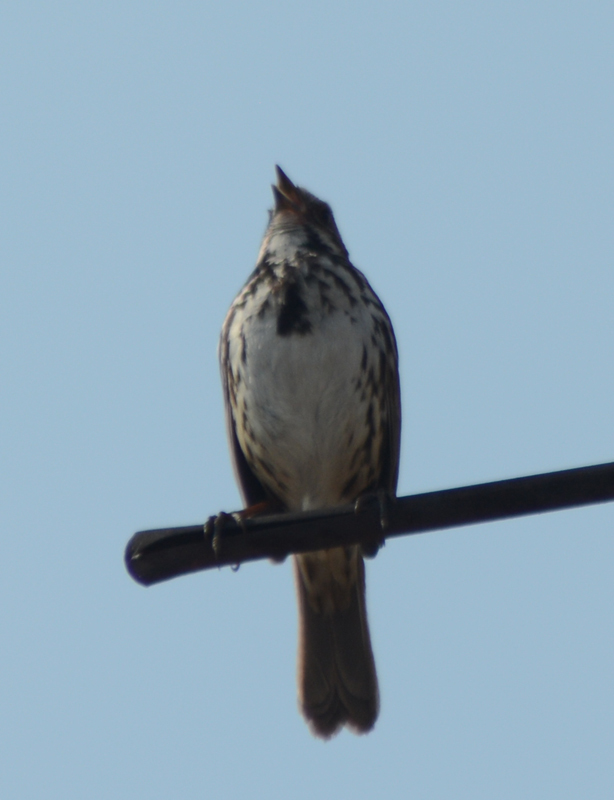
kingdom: Animalia
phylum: Chordata
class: Aves
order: Passeriformes
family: Passerellidae
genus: Melospiza
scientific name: Melospiza melodia
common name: Song sparrow
